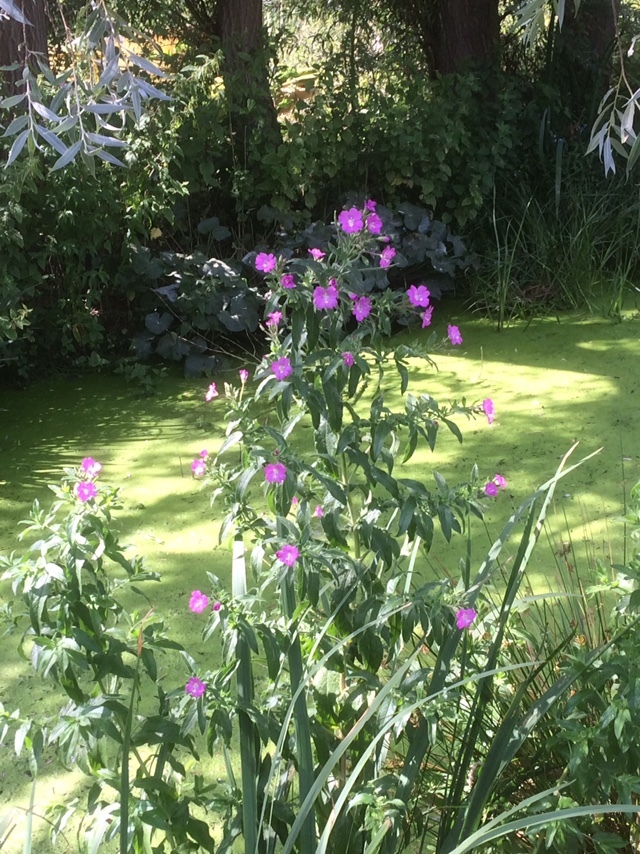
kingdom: Plantae
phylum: Tracheophyta
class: Magnoliopsida
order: Myrtales
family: Onagraceae
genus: Epilobium
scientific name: Epilobium hirsutum
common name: Great willowherb
